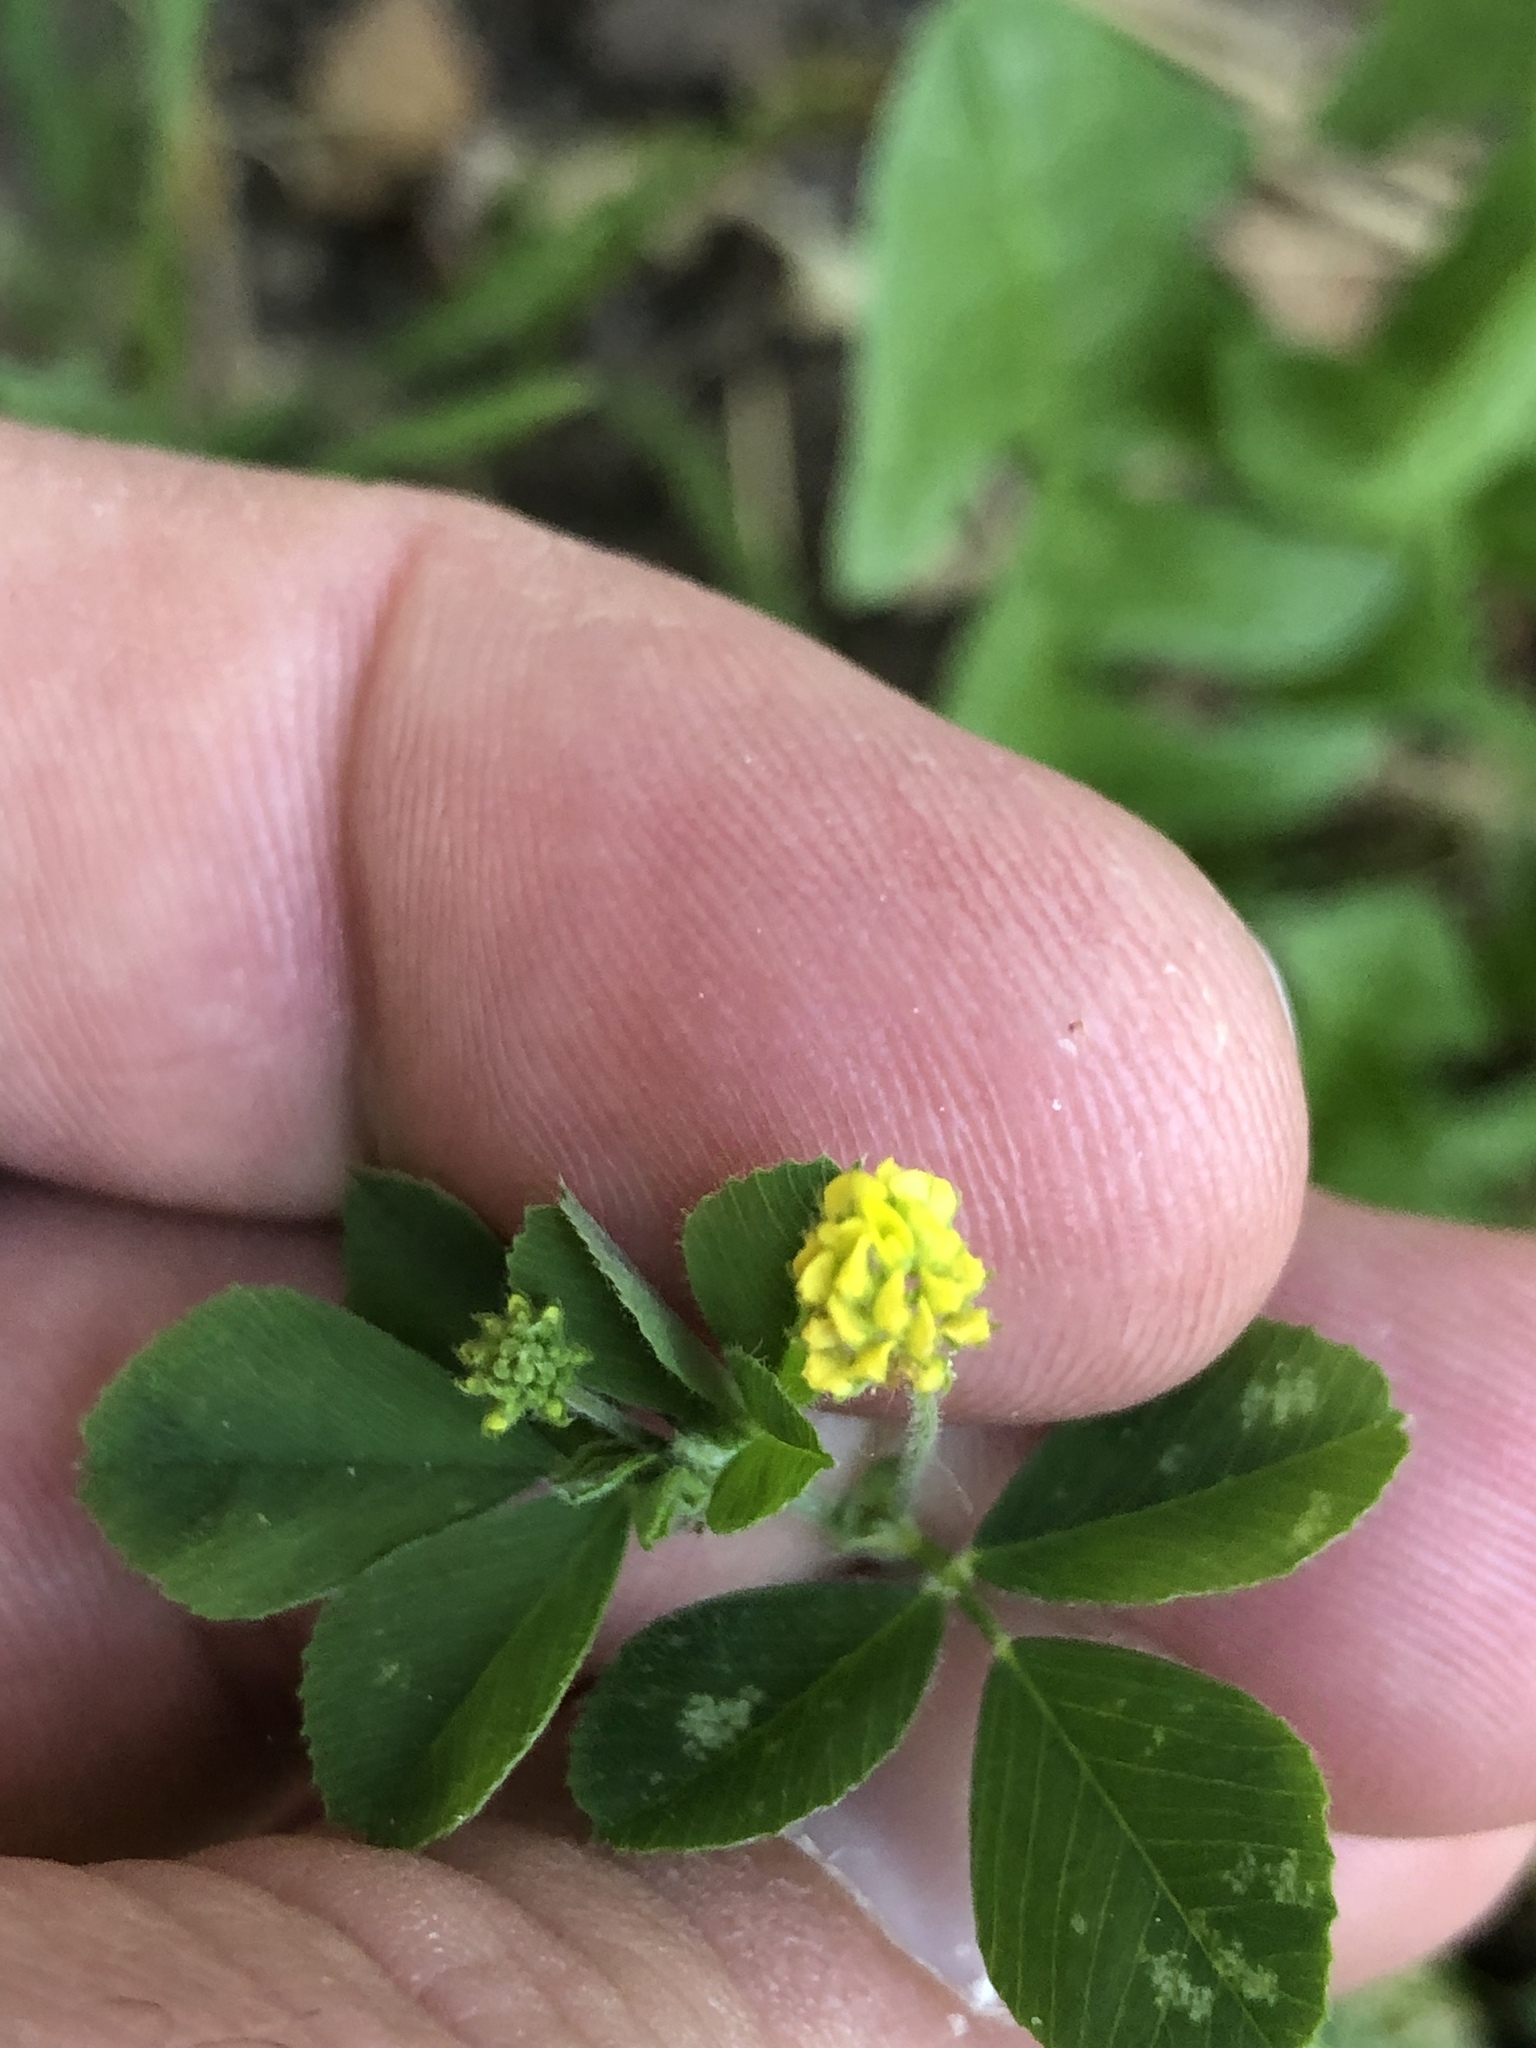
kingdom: Plantae
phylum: Tracheophyta
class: Magnoliopsida
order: Fabales
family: Fabaceae
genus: Medicago
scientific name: Medicago lupulina
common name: Black medick
